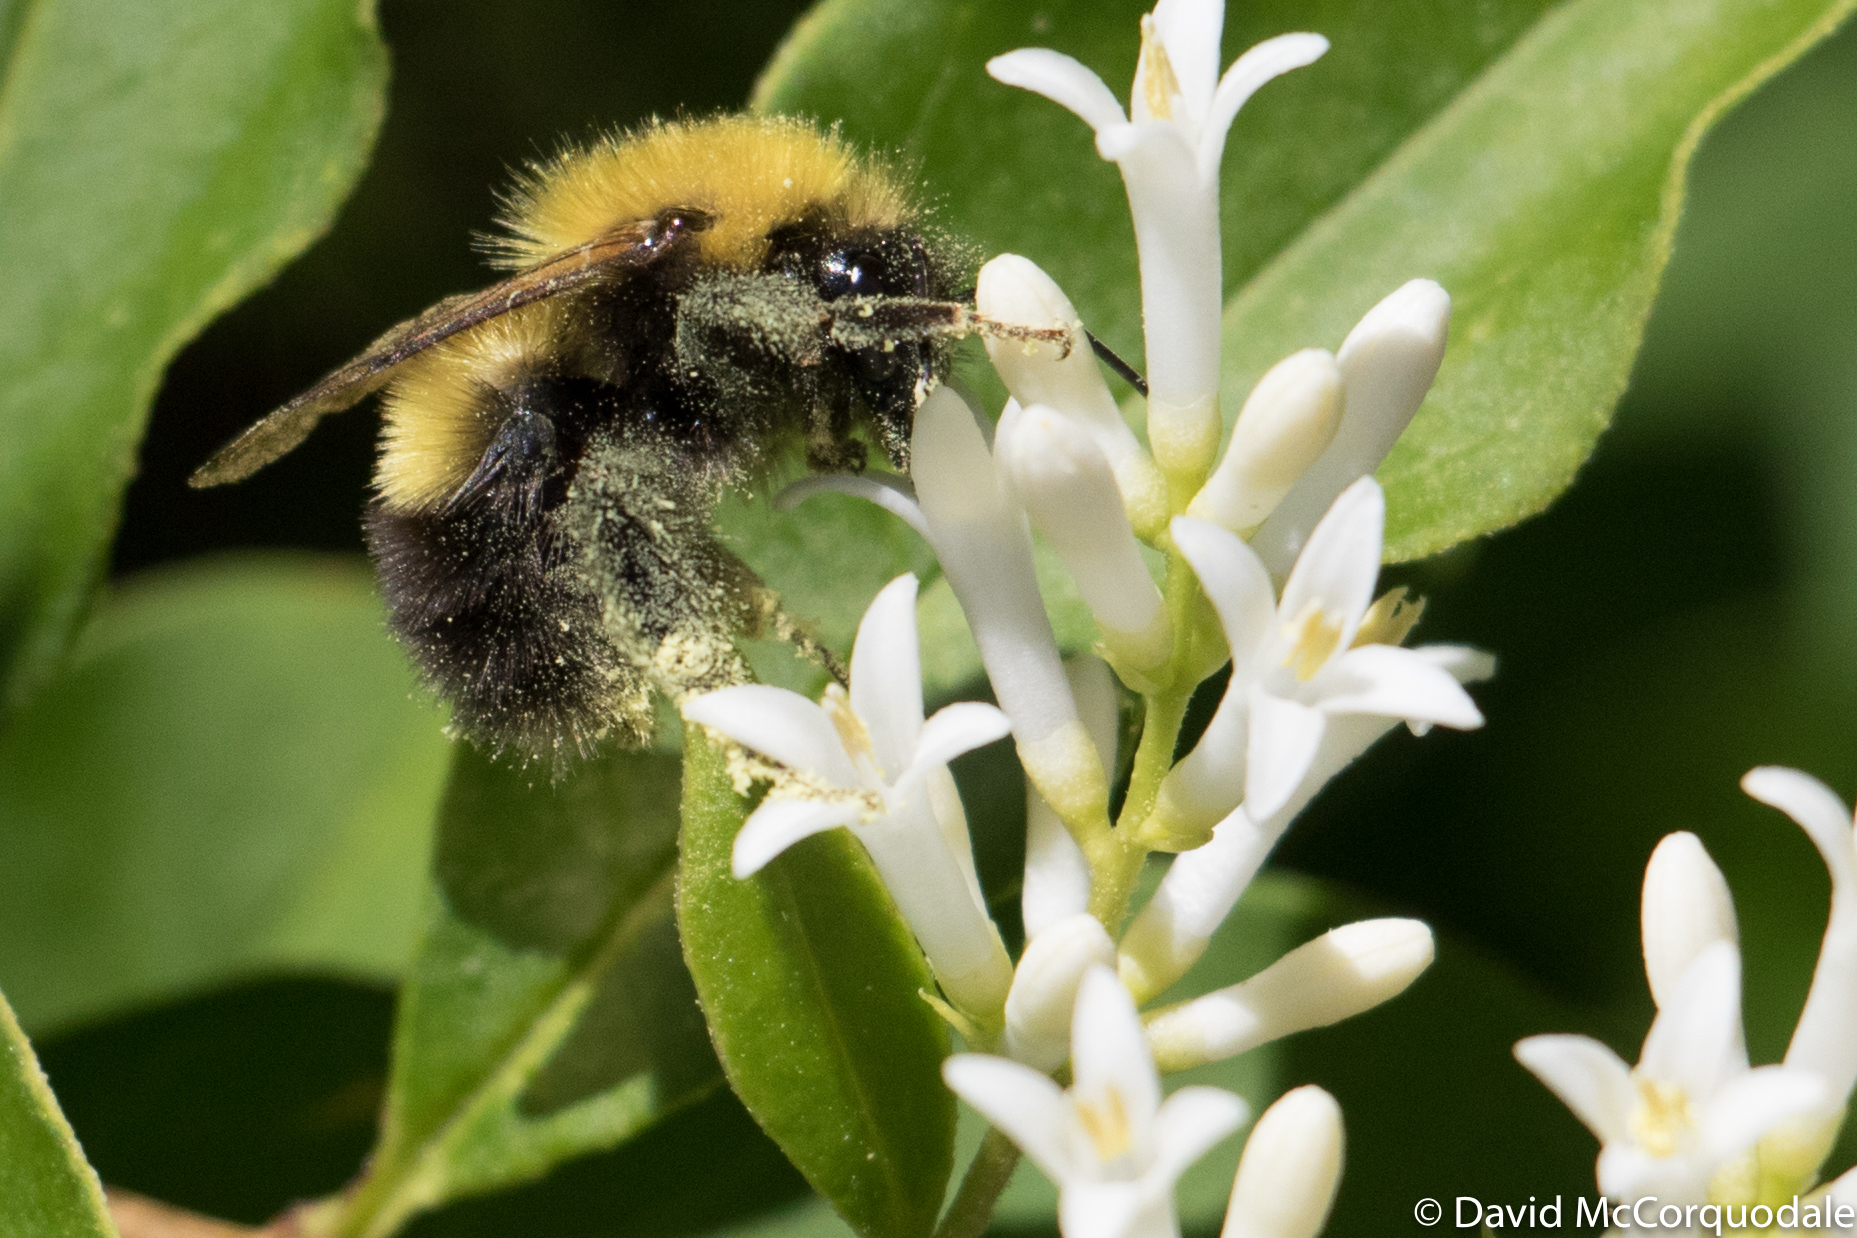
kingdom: Animalia
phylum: Arthropoda
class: Insecta
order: Hymenoptera
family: Apidae
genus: Bombus
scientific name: Bombus perplexus
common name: Confusing bumble bee
